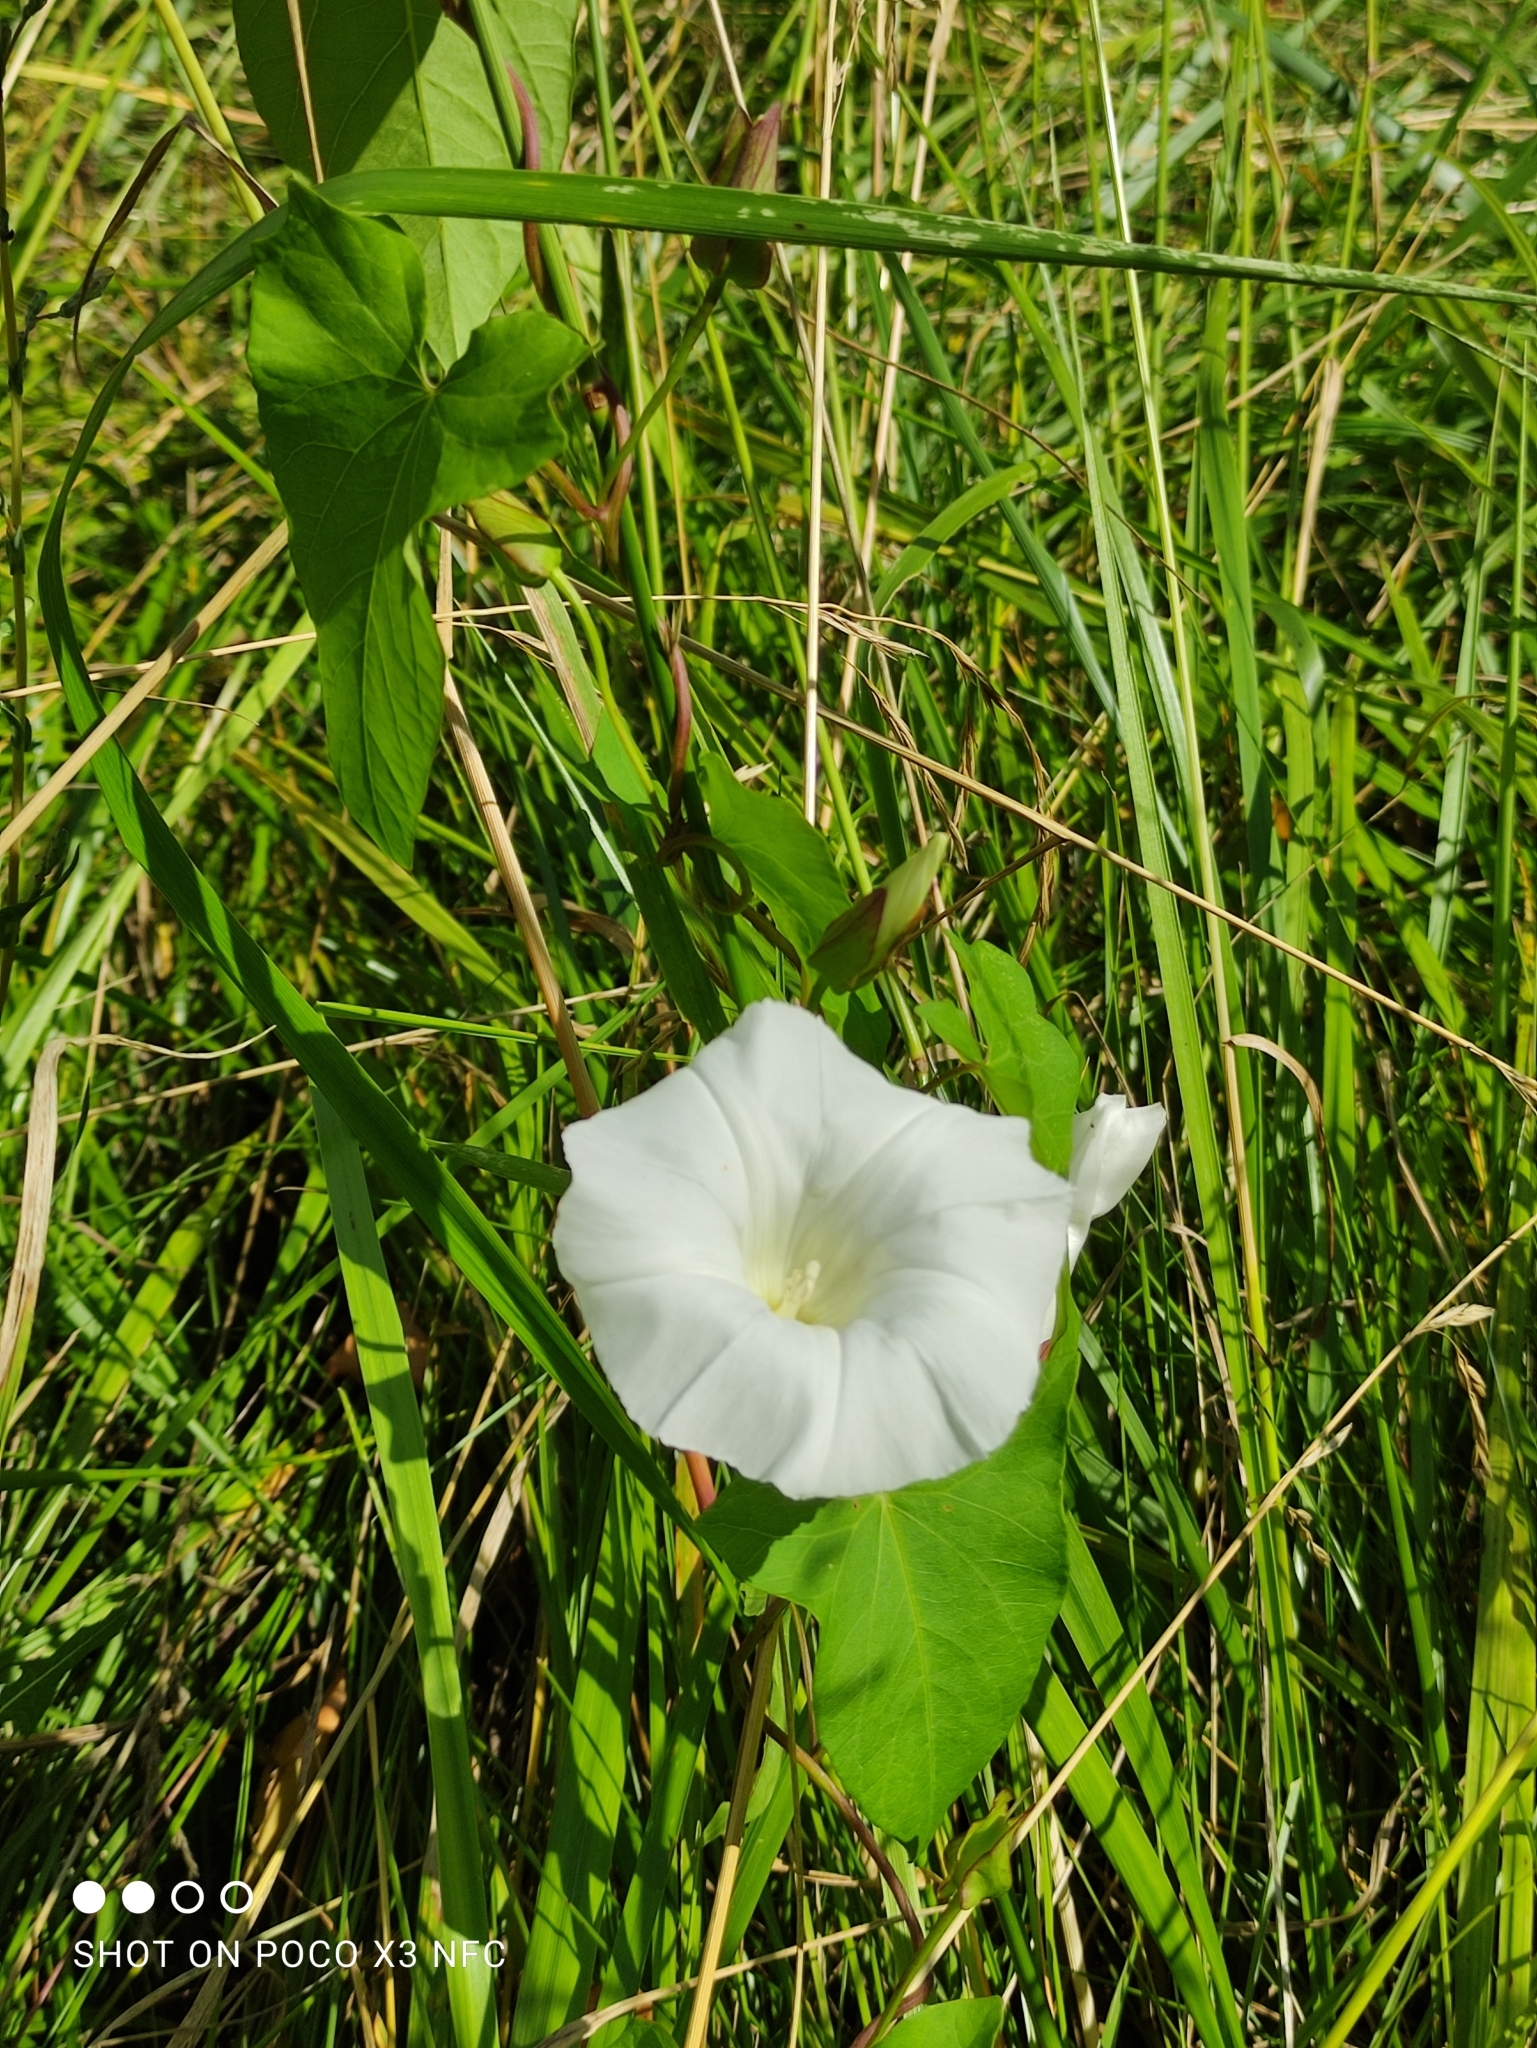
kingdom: Plantae
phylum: Tracheophyta
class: Magnoliopsida
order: Solanales
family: Convolvulaceae
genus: Calystegia
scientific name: Calystegia sepium
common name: Hedge bindweed
